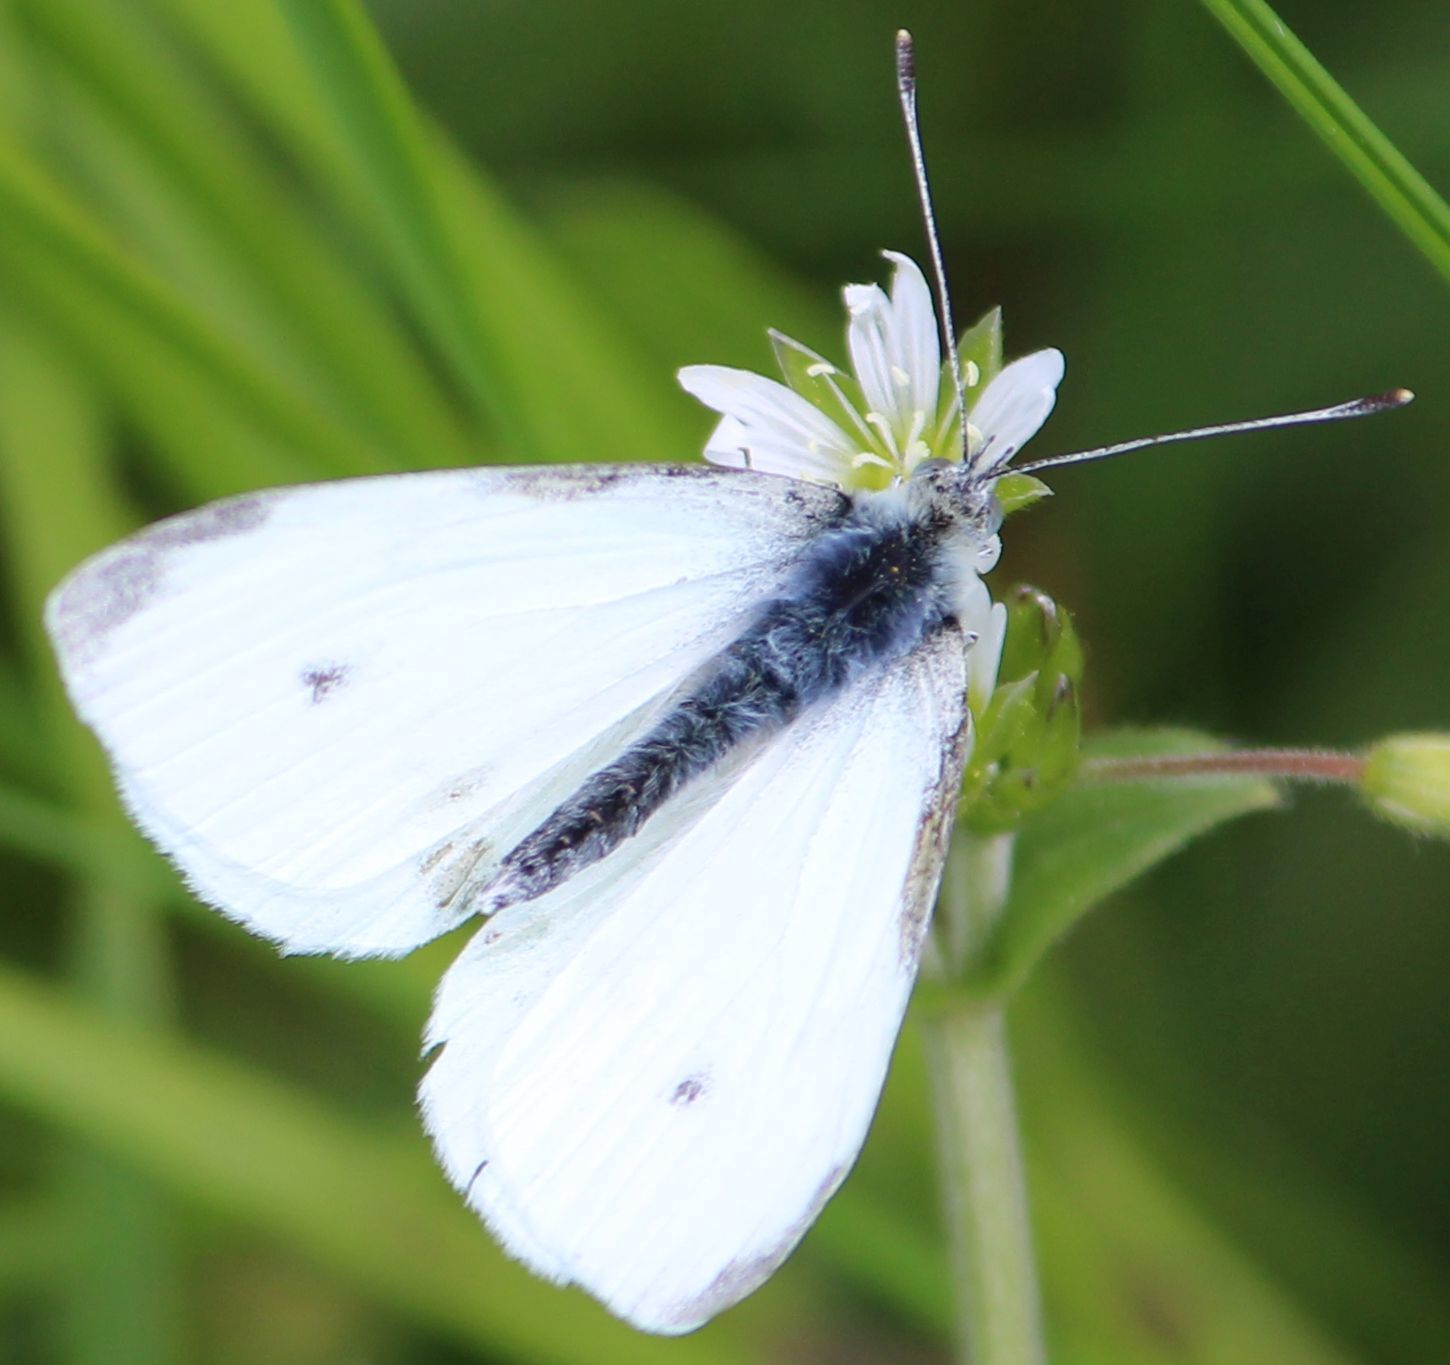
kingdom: Animalia
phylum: Arthropoda
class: Insecta
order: Lepidoptera
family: Pieridae
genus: Pieris
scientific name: Pieris rapae
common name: Small white
